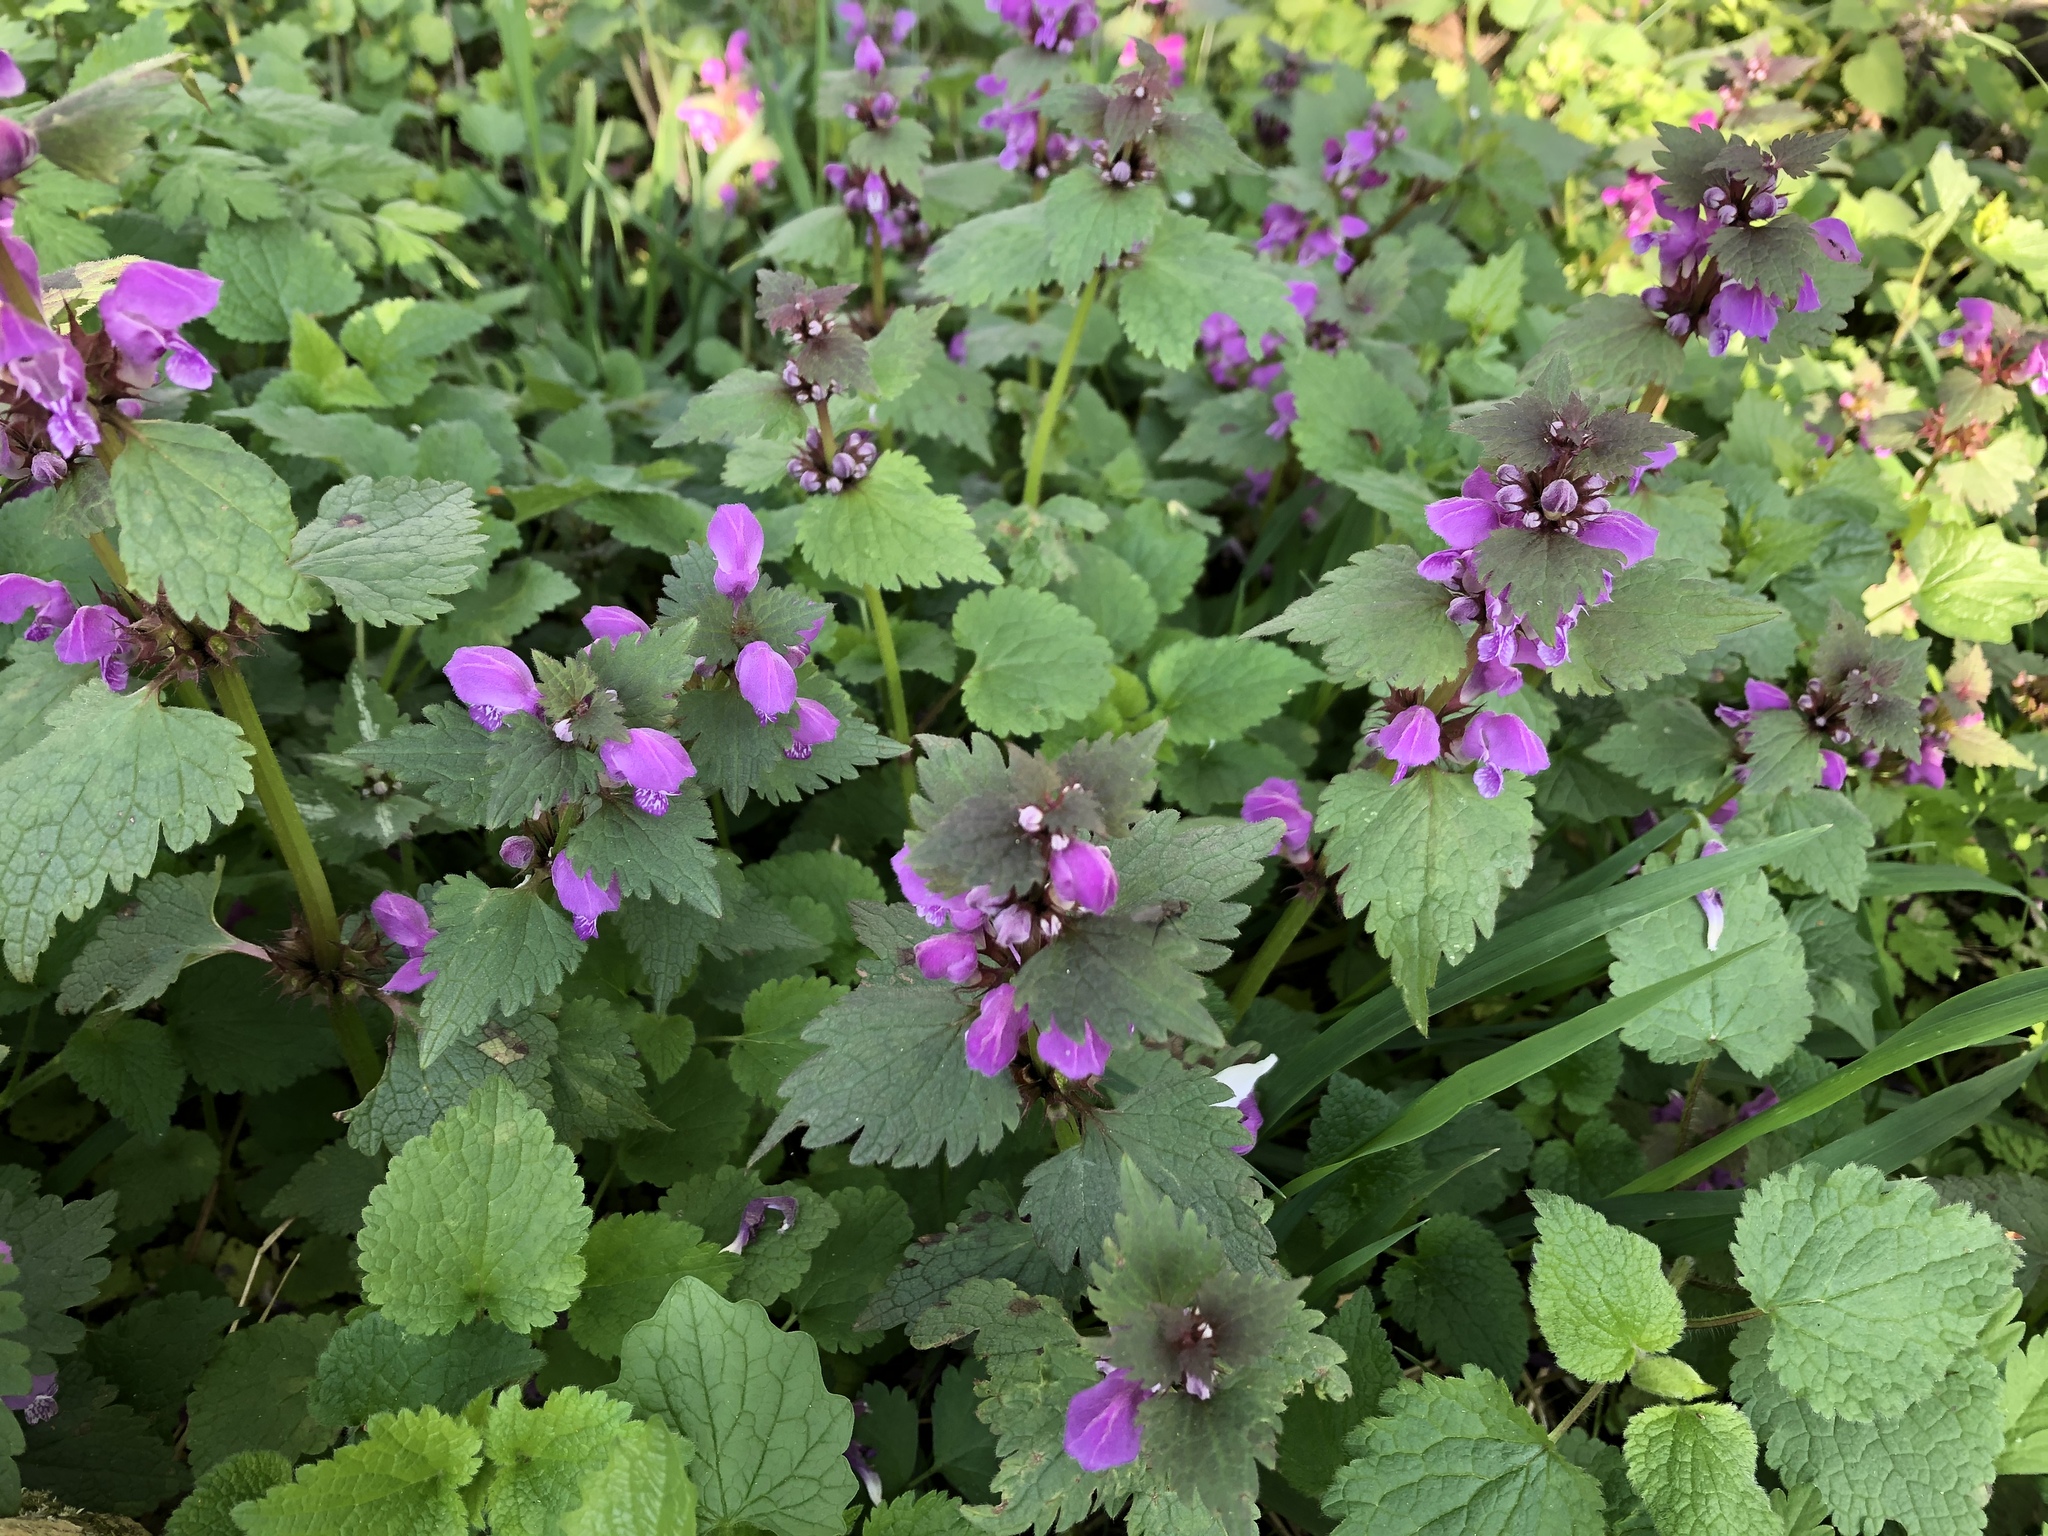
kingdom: Plantae
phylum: Tracheophyta
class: Magnoliopsida
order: Lamiales
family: Lamiaceae
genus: Lamium
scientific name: Lamium maculatum
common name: Spotted dead-nettle
